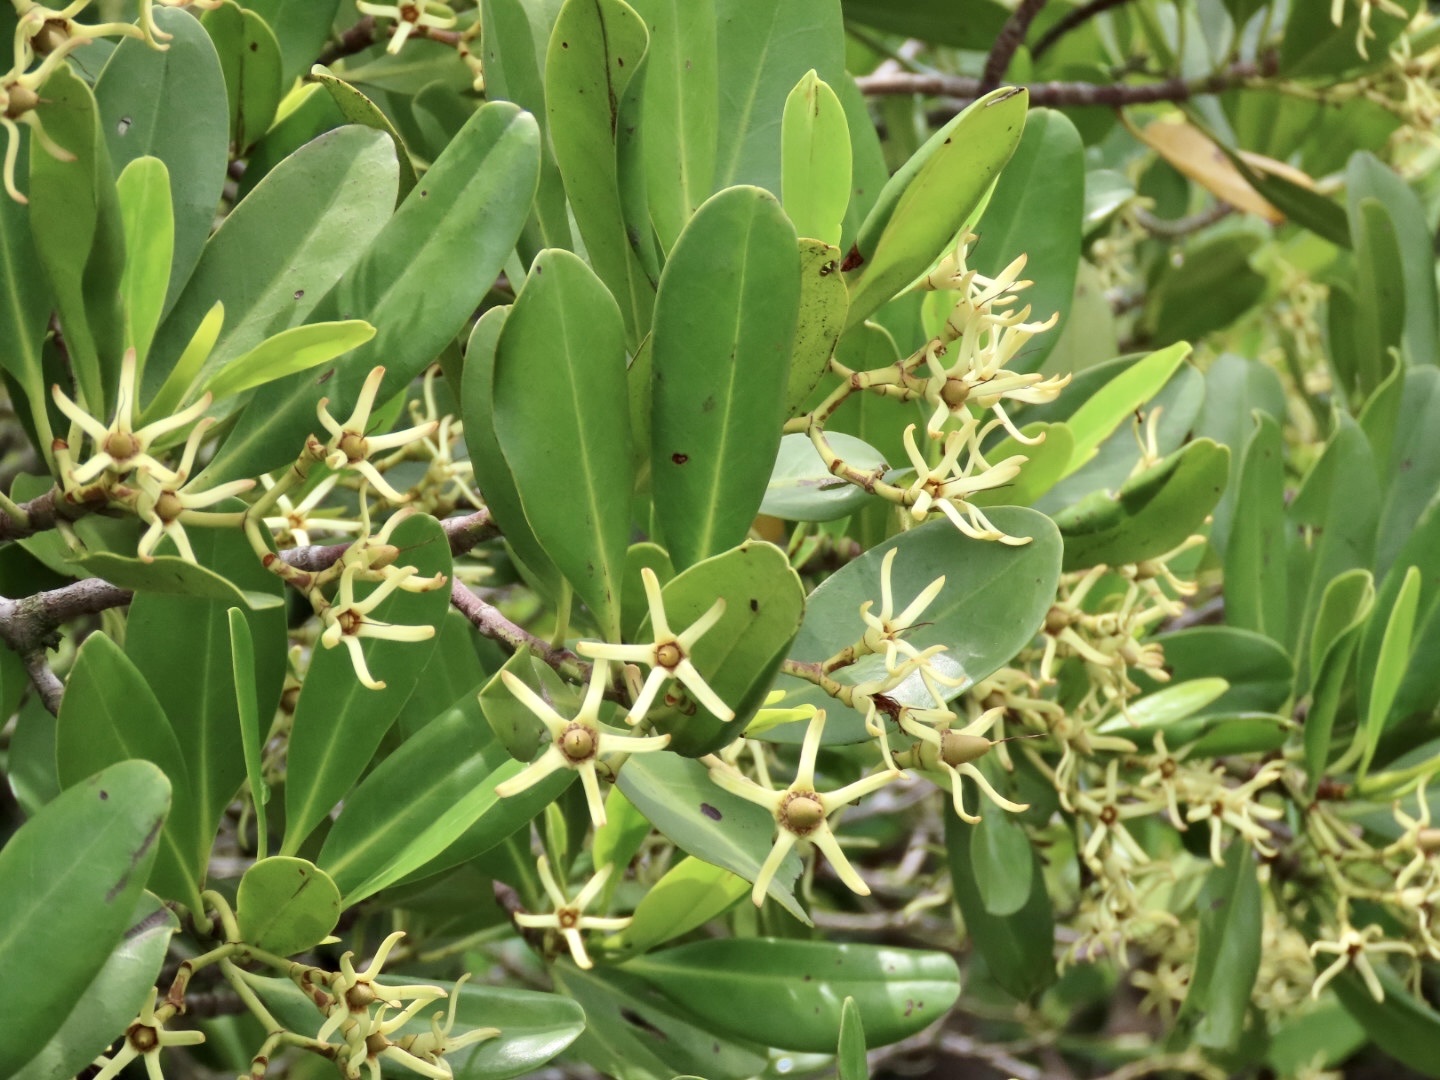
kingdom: Plantae
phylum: Tracheophyta
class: Magnoliopsida
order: Malpighiales
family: Rhizophoraceae
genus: Kandelia
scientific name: Kandelia obovata
